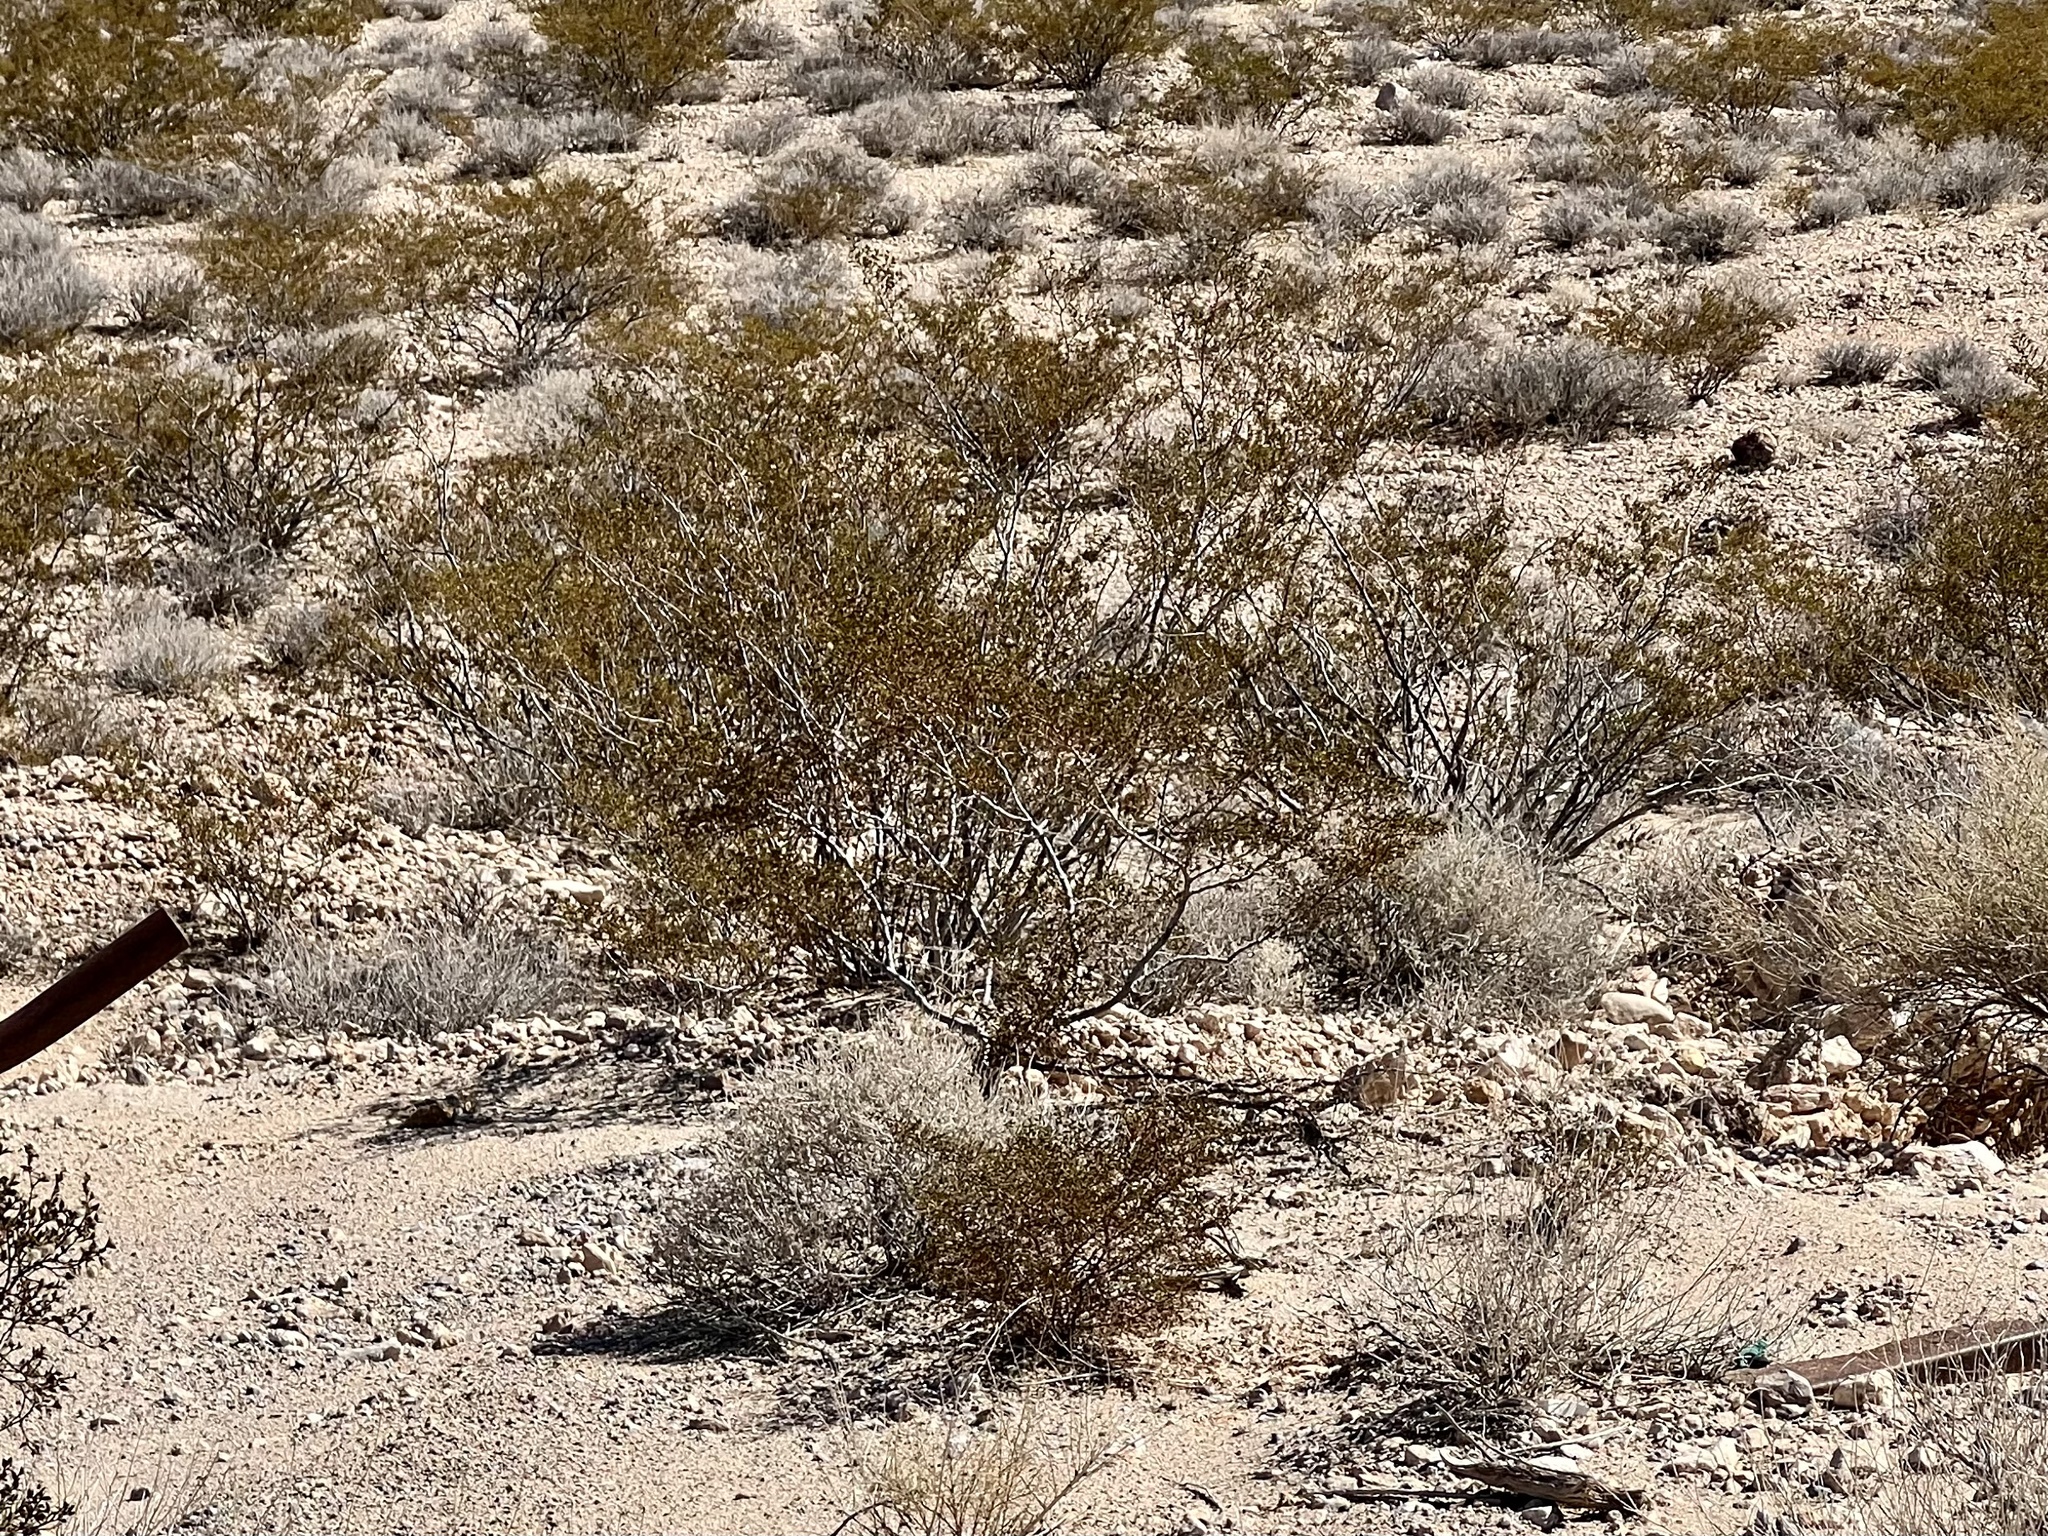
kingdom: Plantae
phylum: Tracheophyta
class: Magnoliopsida
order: Zygophyllales
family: Zygophyllaceae
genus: Larrea
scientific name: Larrea tridentata
